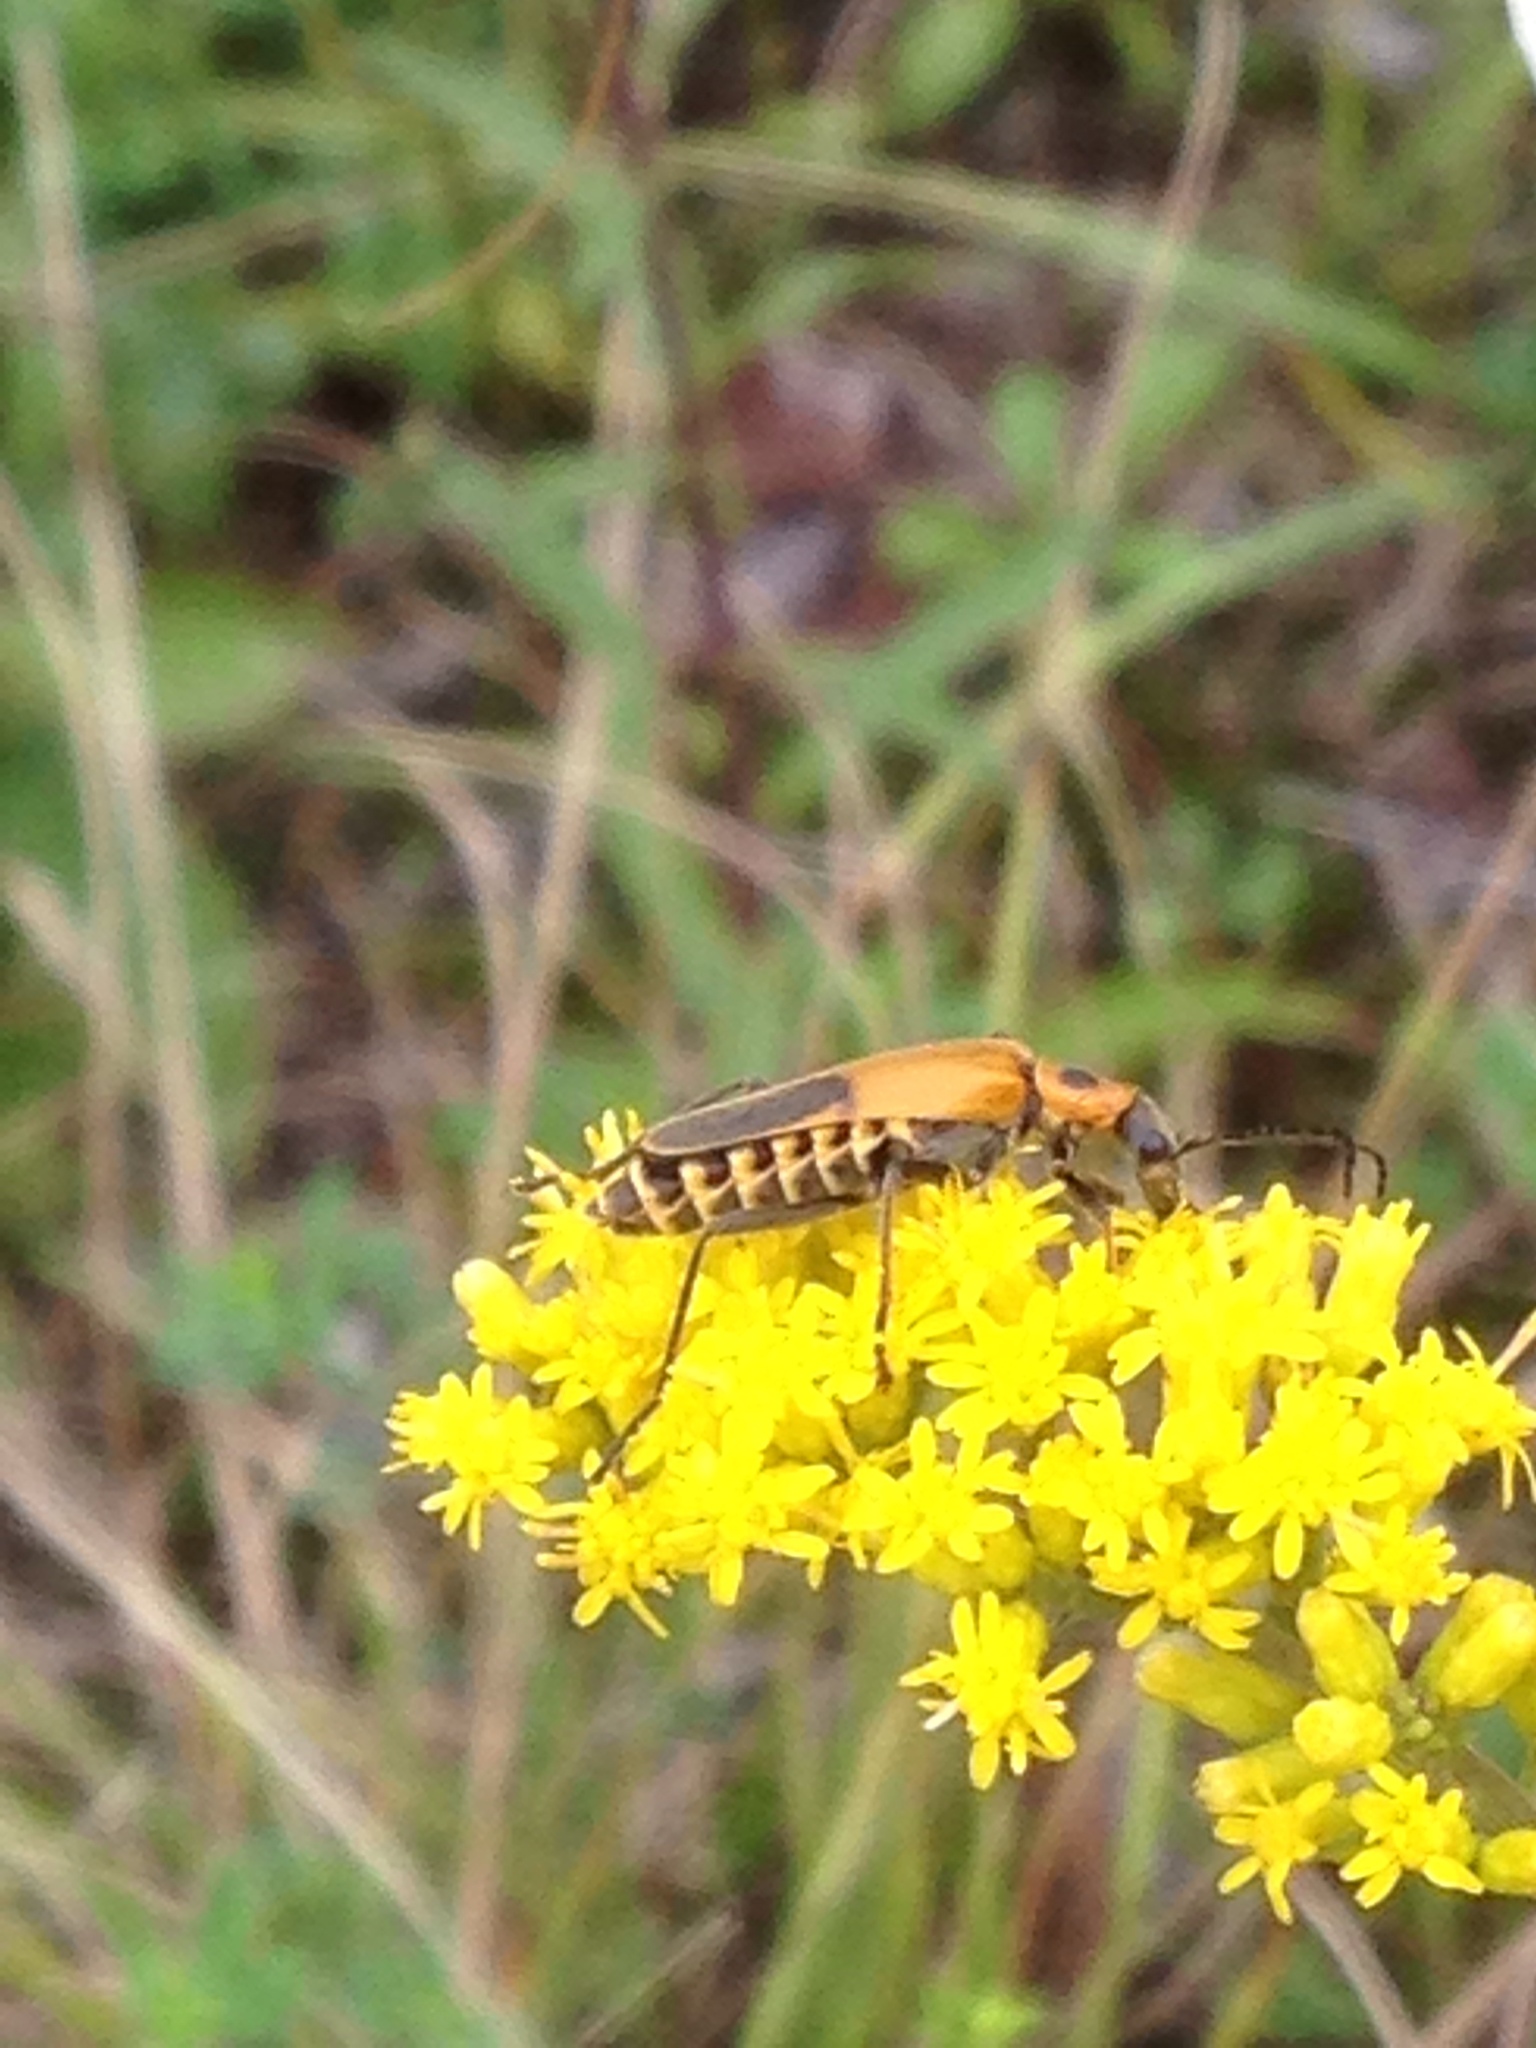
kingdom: Animalia
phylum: Arthropoda
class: Insecta
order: Coleoptera
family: Cantharidae
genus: Chauliognathus
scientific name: Chauliognathus pensylvanicus
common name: Goldenrod soldier beetle
